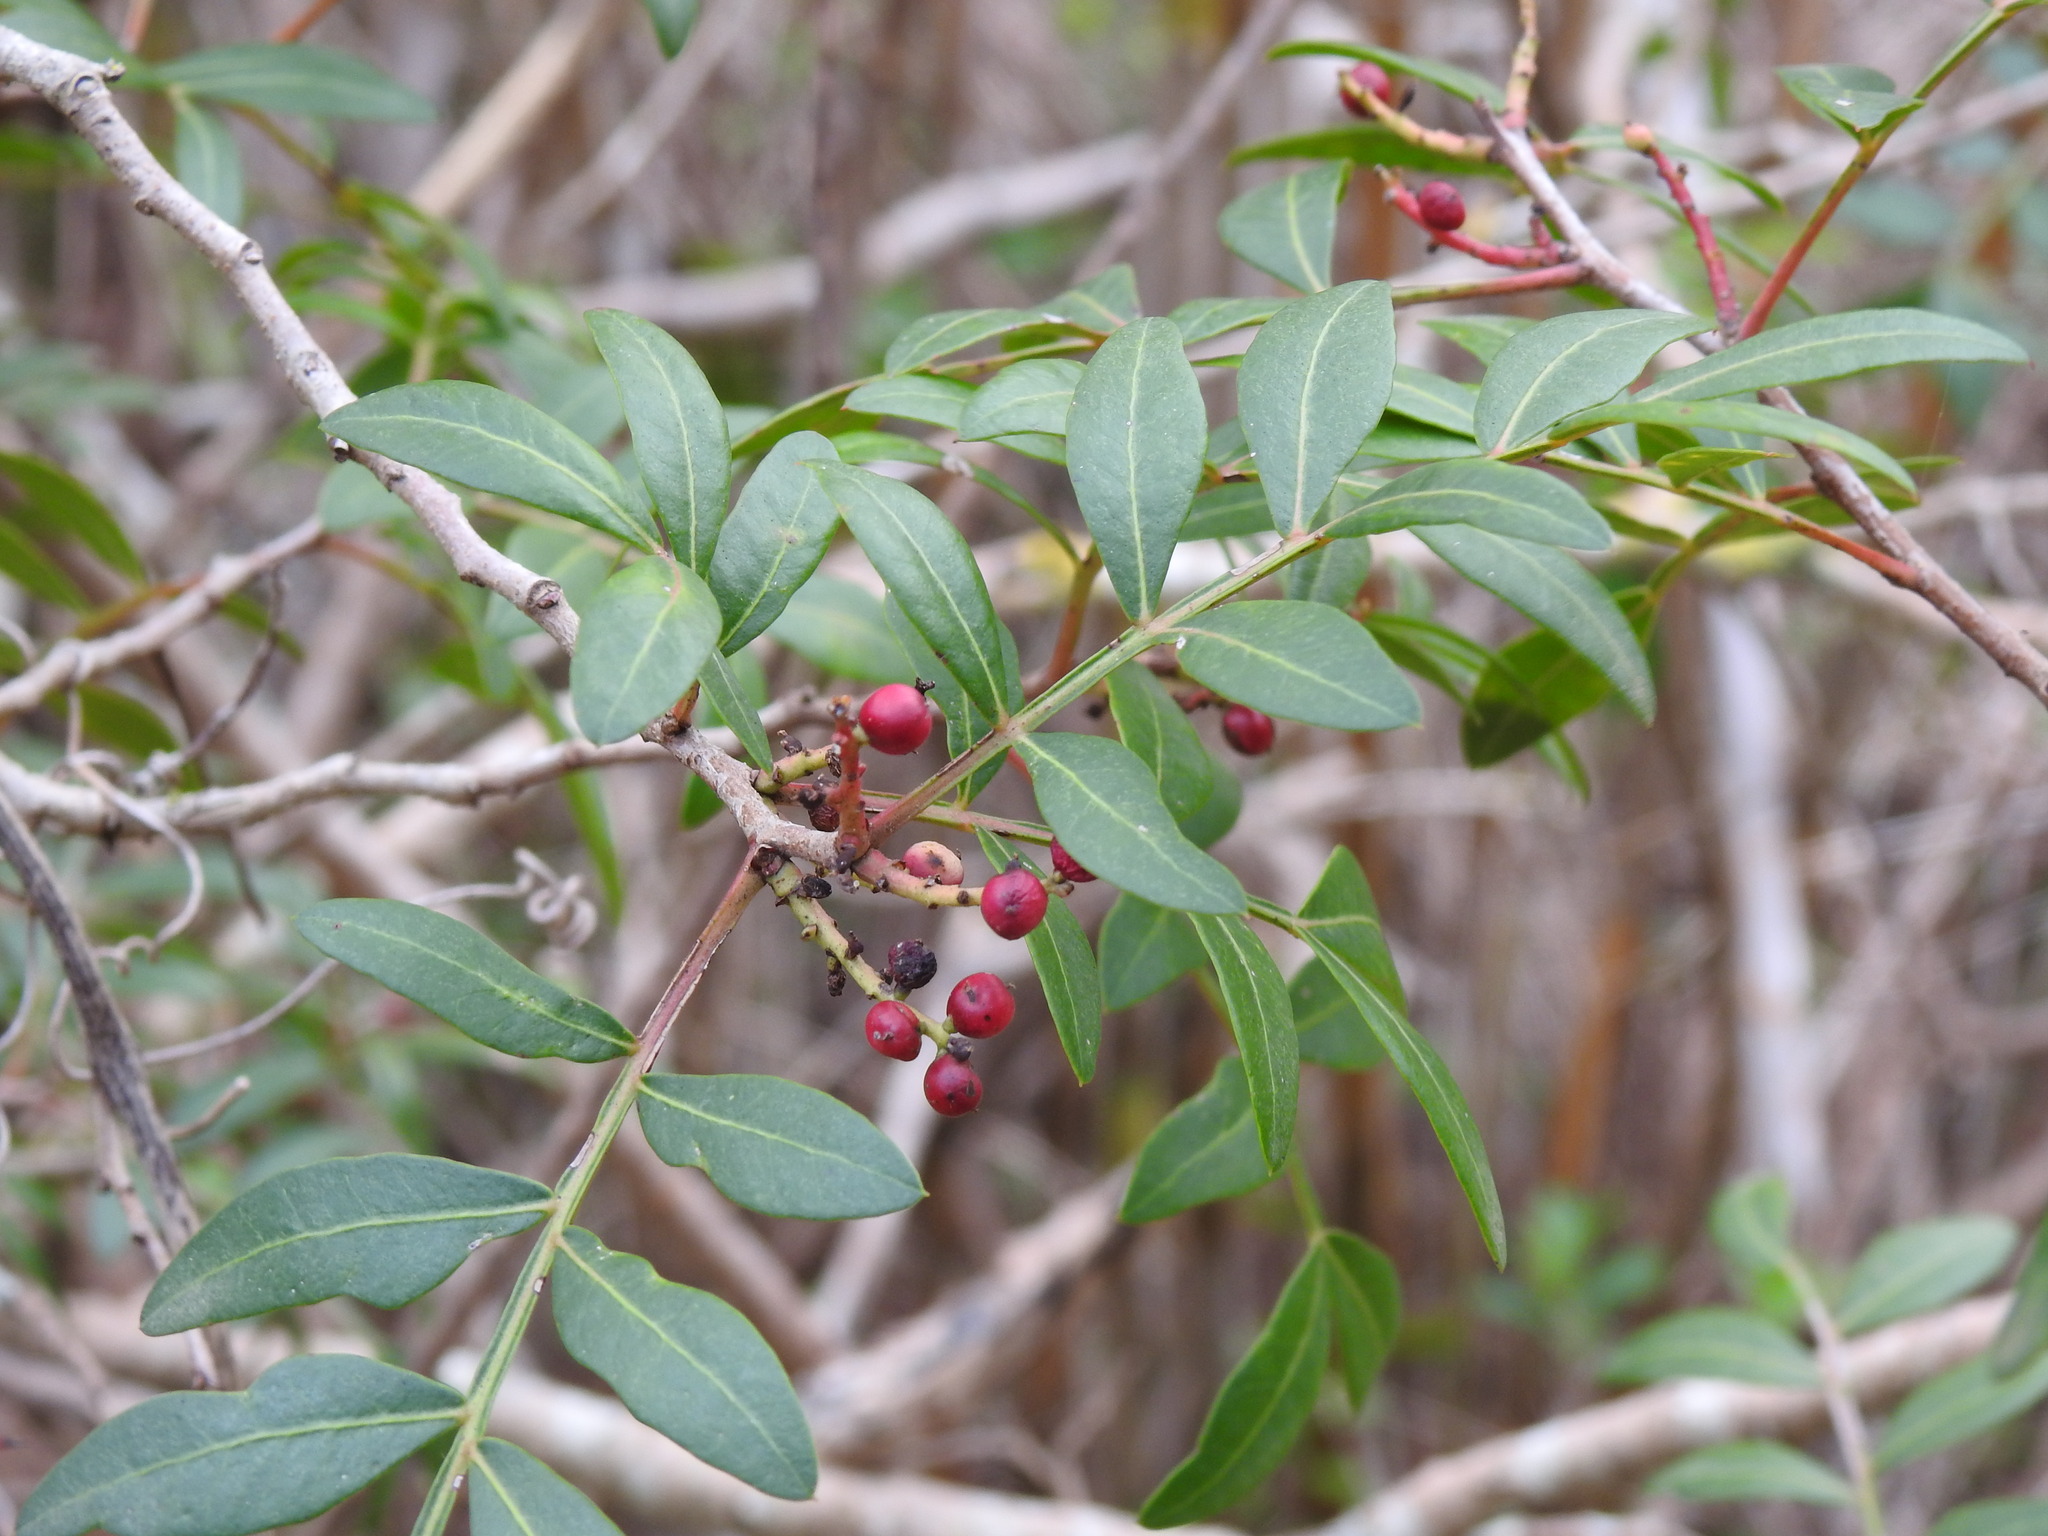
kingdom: Plantae
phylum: Tracheophyta
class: Magnoliopsida
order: Sapindales
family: Anacardiaceae
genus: Pistacia
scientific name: Pistacia lentiscus
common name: Lentisk
